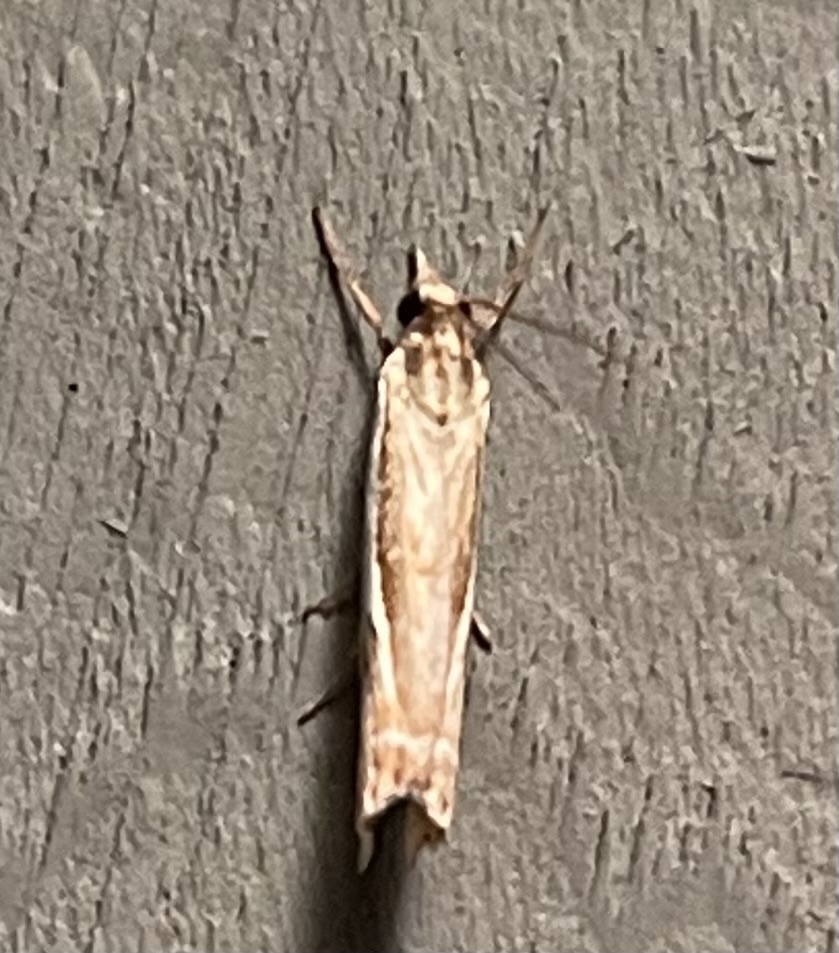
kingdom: Animalia
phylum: Arthropoda
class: Insecta
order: Lepidoptera
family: Crambidae
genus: Crambus
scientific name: Crambus
